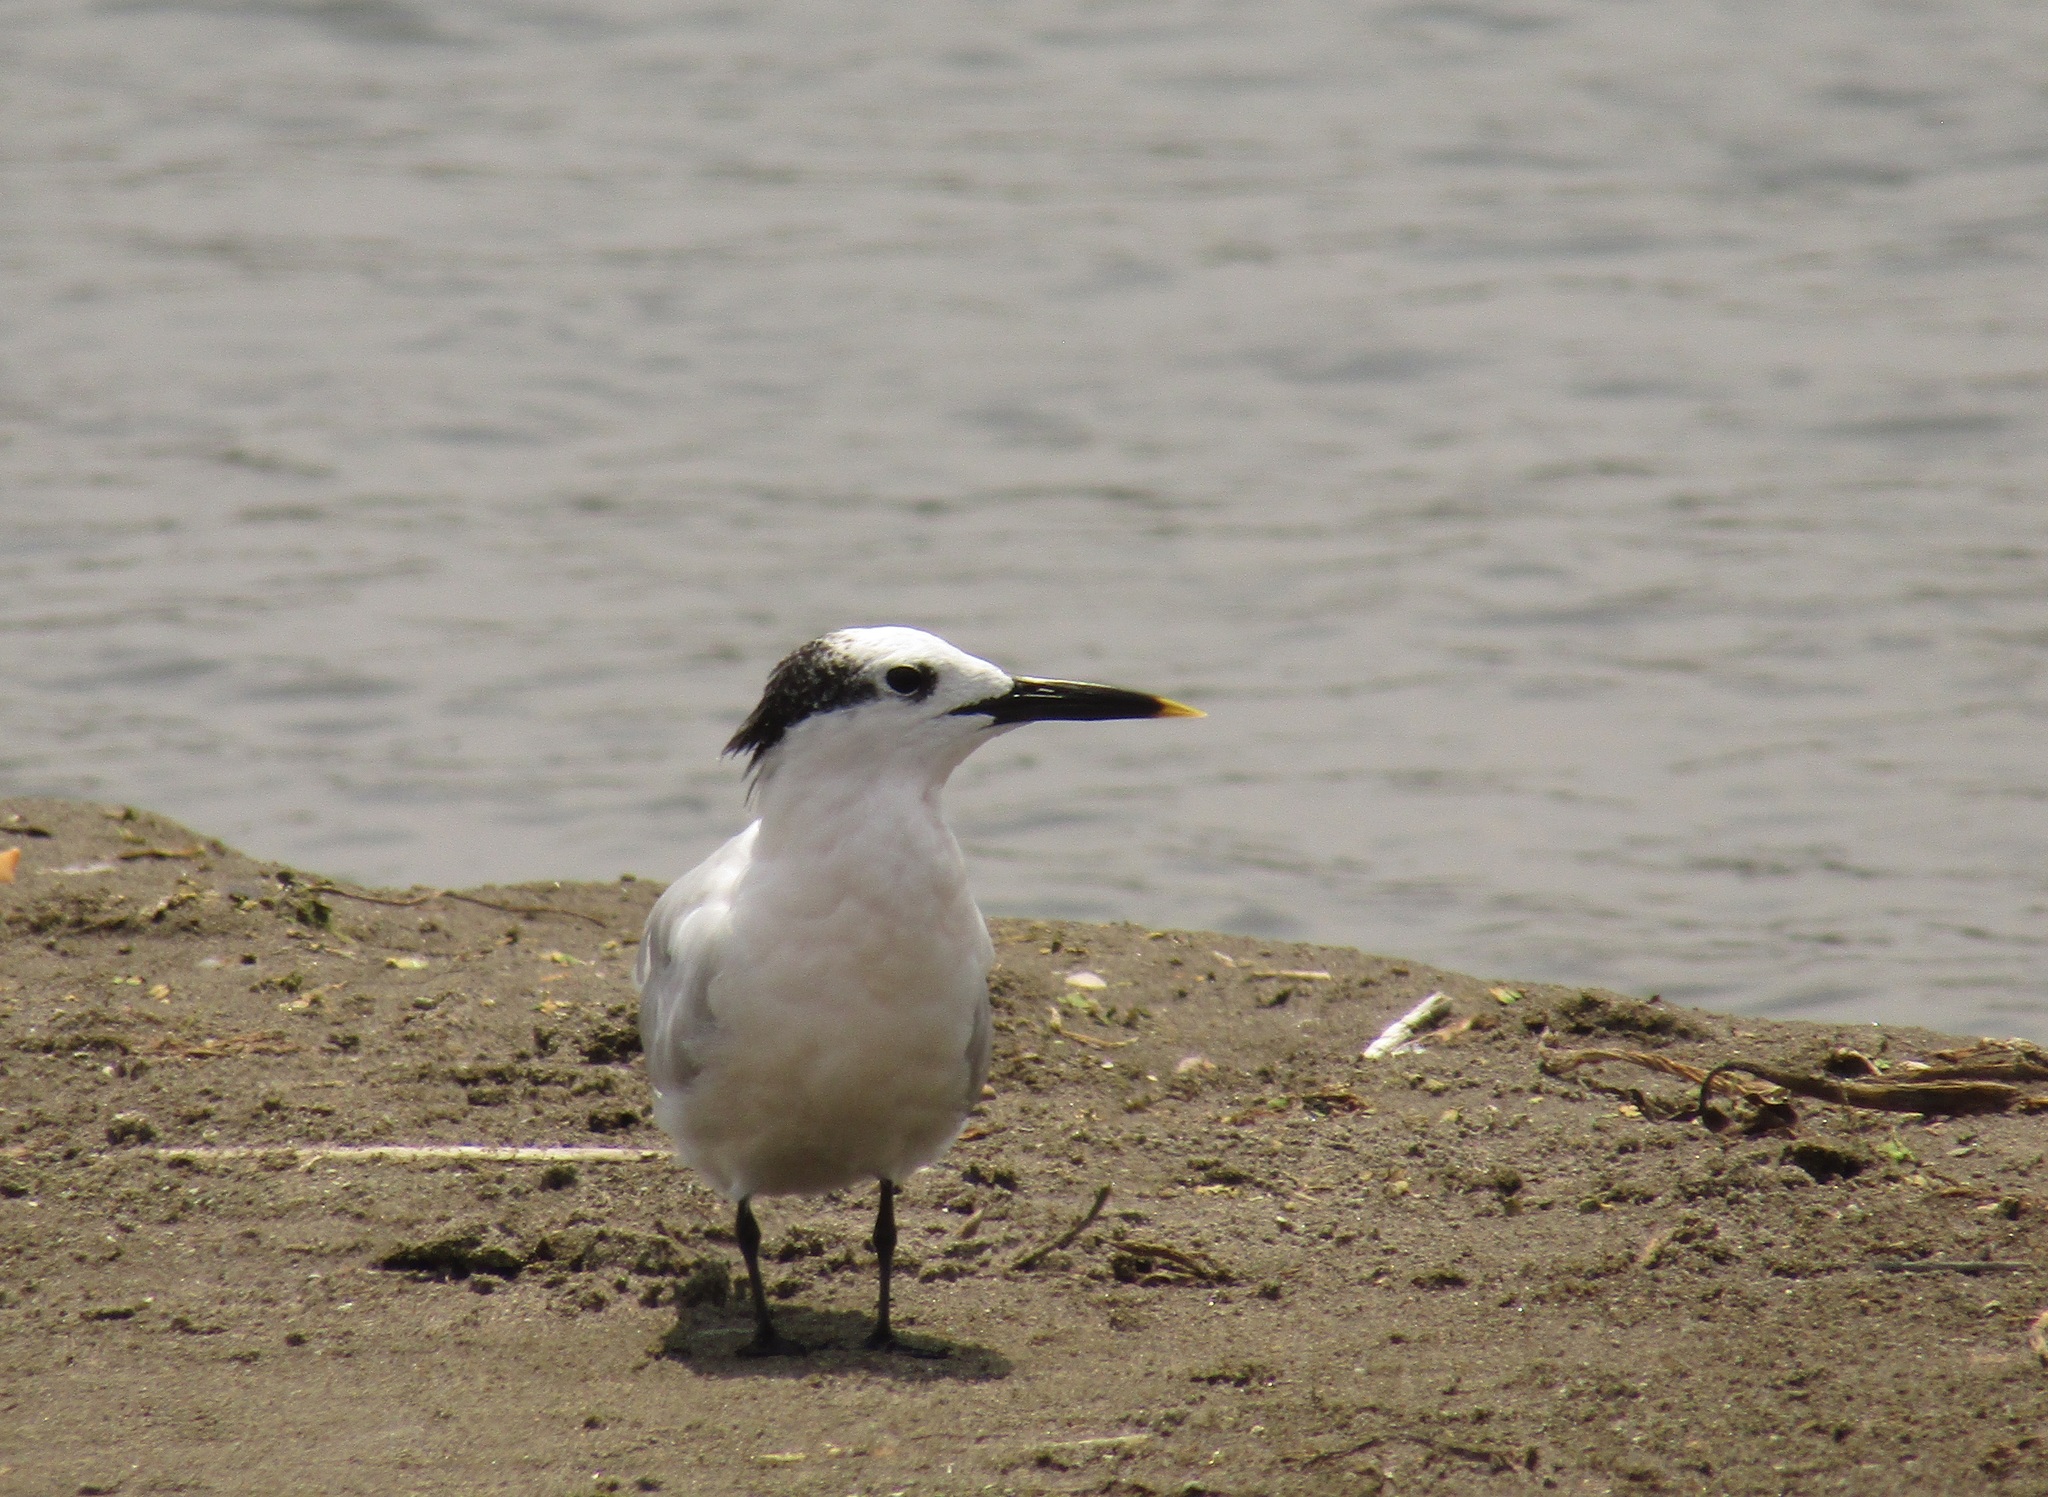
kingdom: Animalia
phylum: Chordata
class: Aves
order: Charadriiformes
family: Laridae
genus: Thalasseus
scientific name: Thalasseus sandvicensis
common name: Sandwich tern
